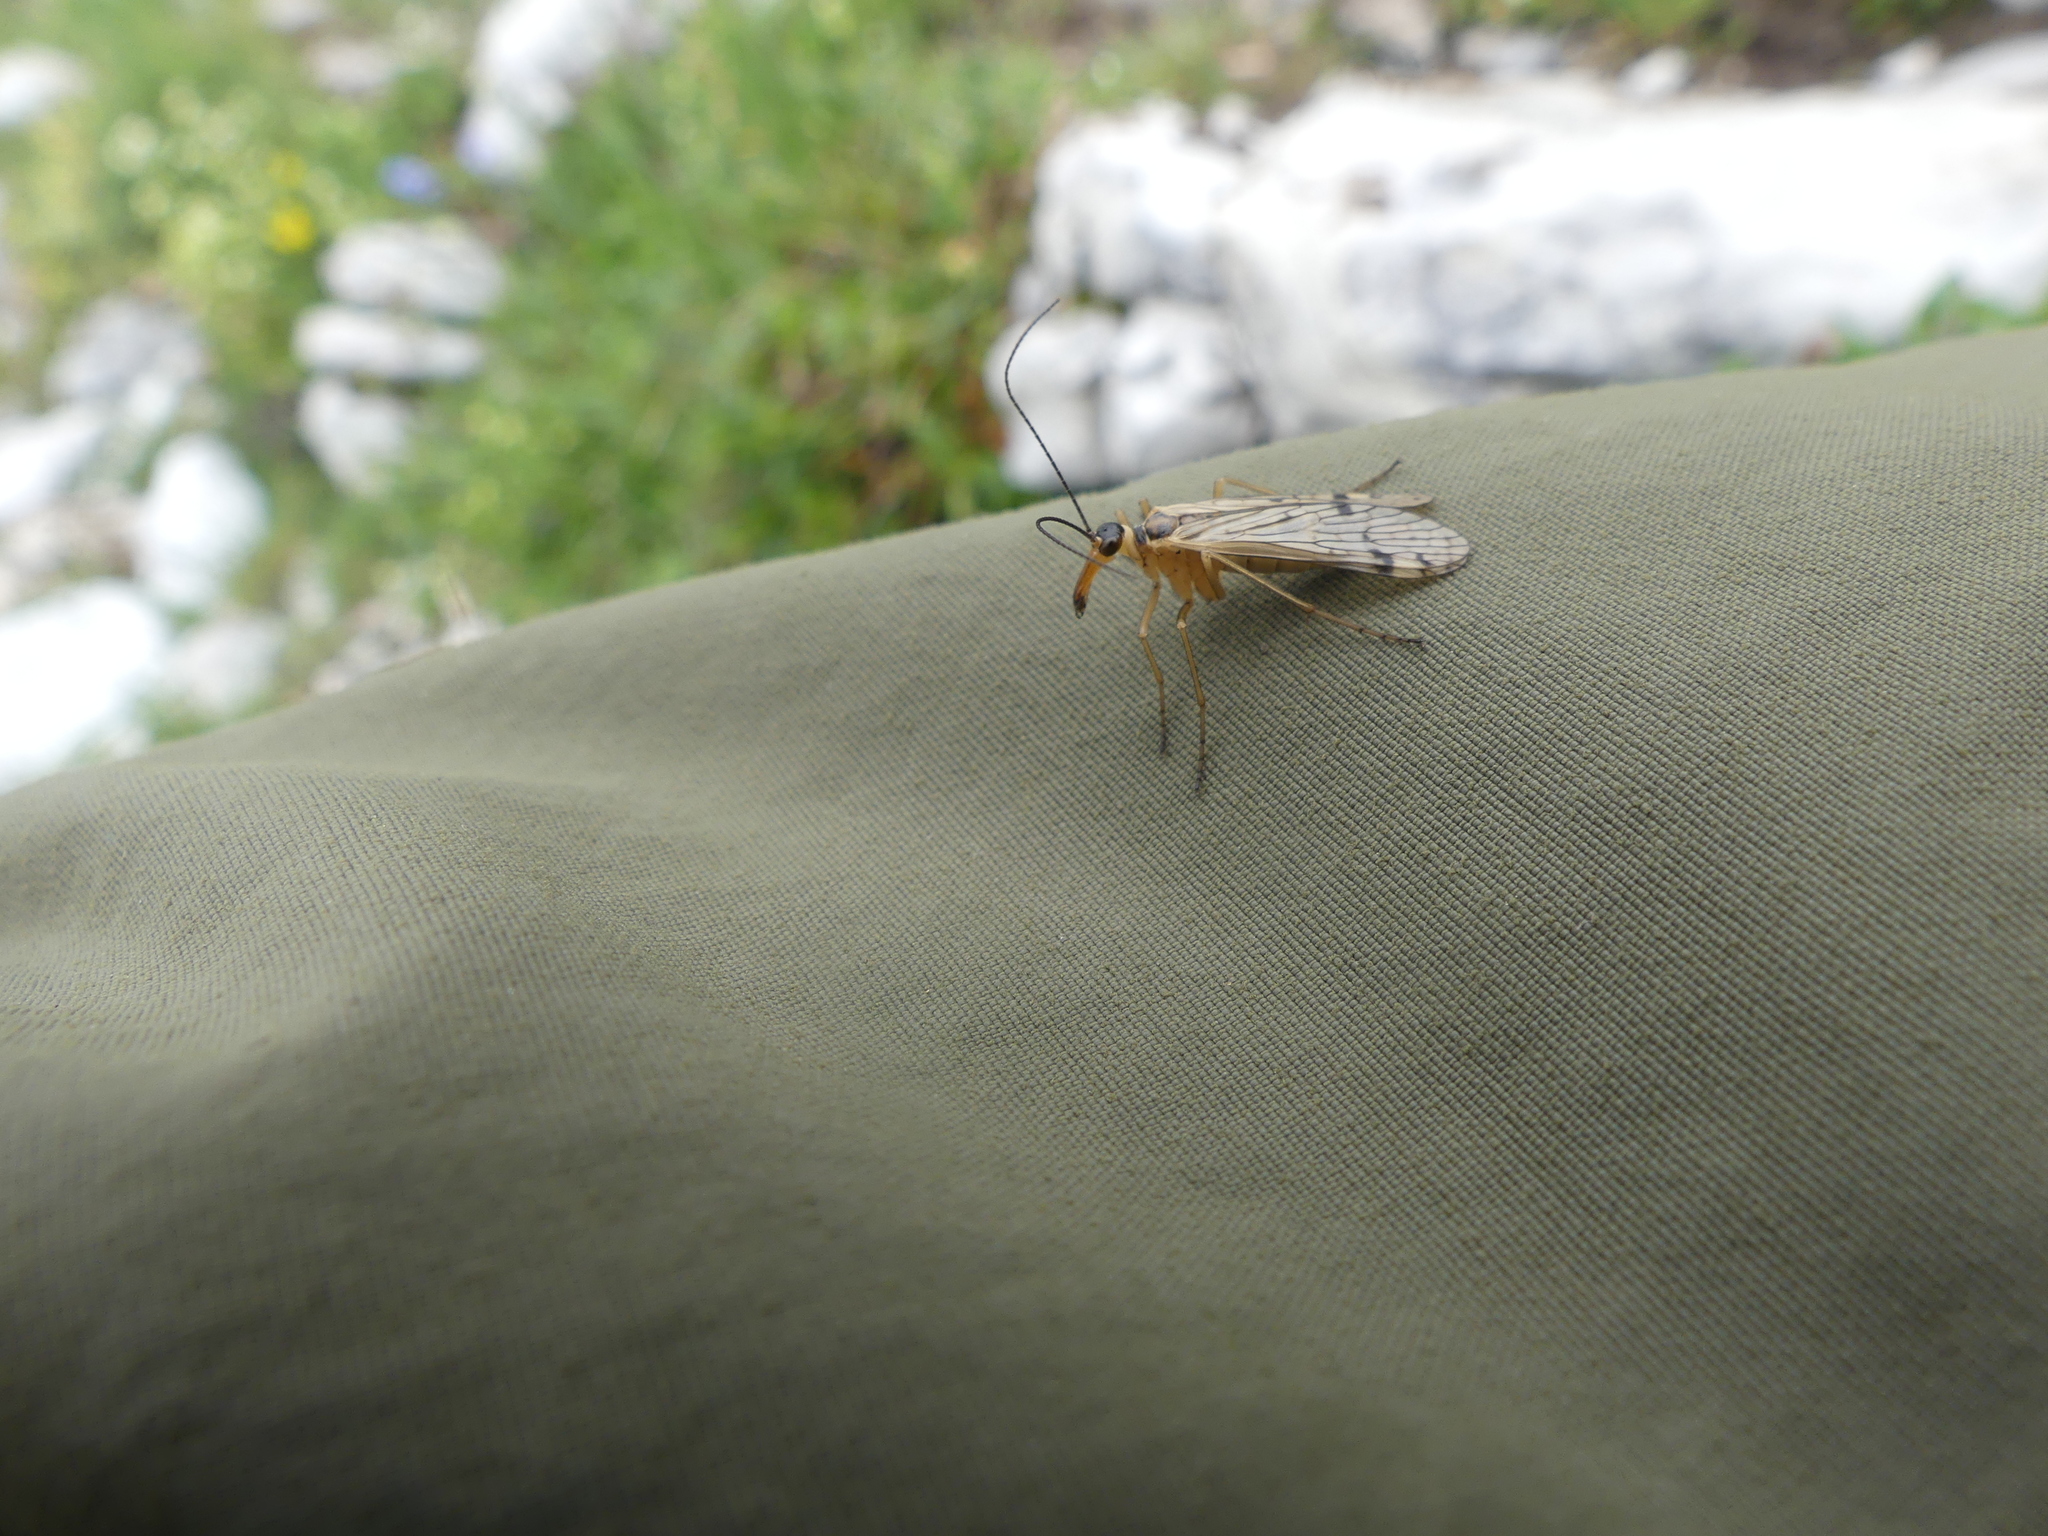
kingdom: Animalia
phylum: Arthropoda
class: Insecta
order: Mecoptera
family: Panorpidae
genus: Panorpa
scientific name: Panorpa alpina
